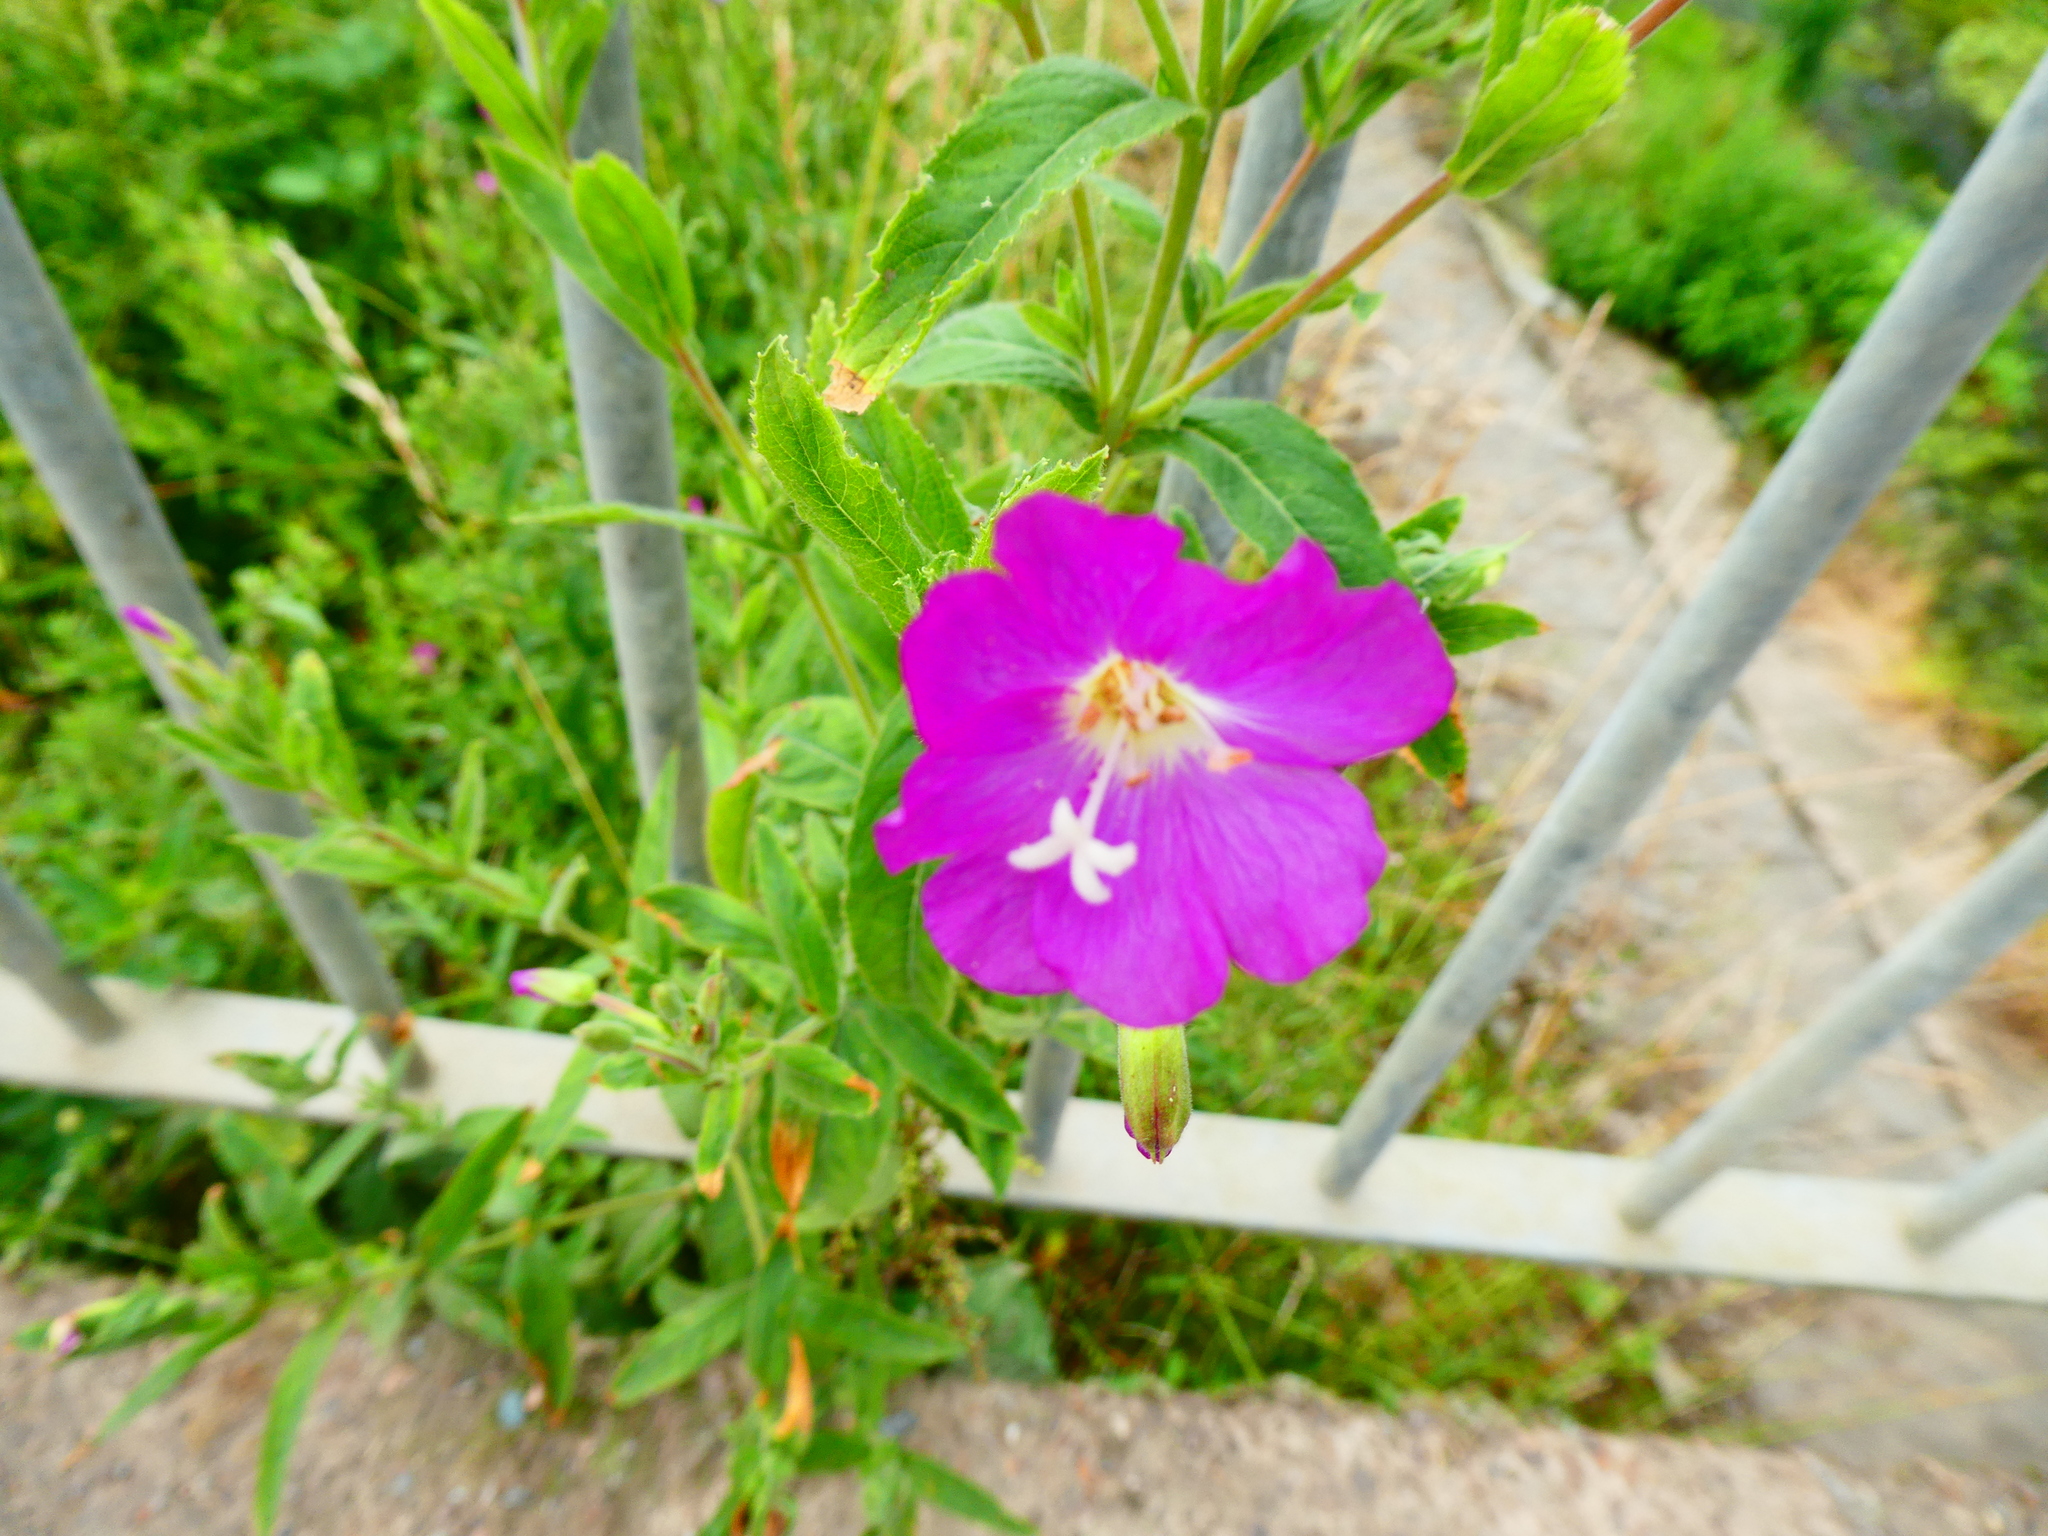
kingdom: Plantae
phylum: Tracheophyta
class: Magnoliopsida
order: Myrtales
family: Onagraceae
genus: Epilobium
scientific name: Epilobium hirsutum
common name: Great willowherb
